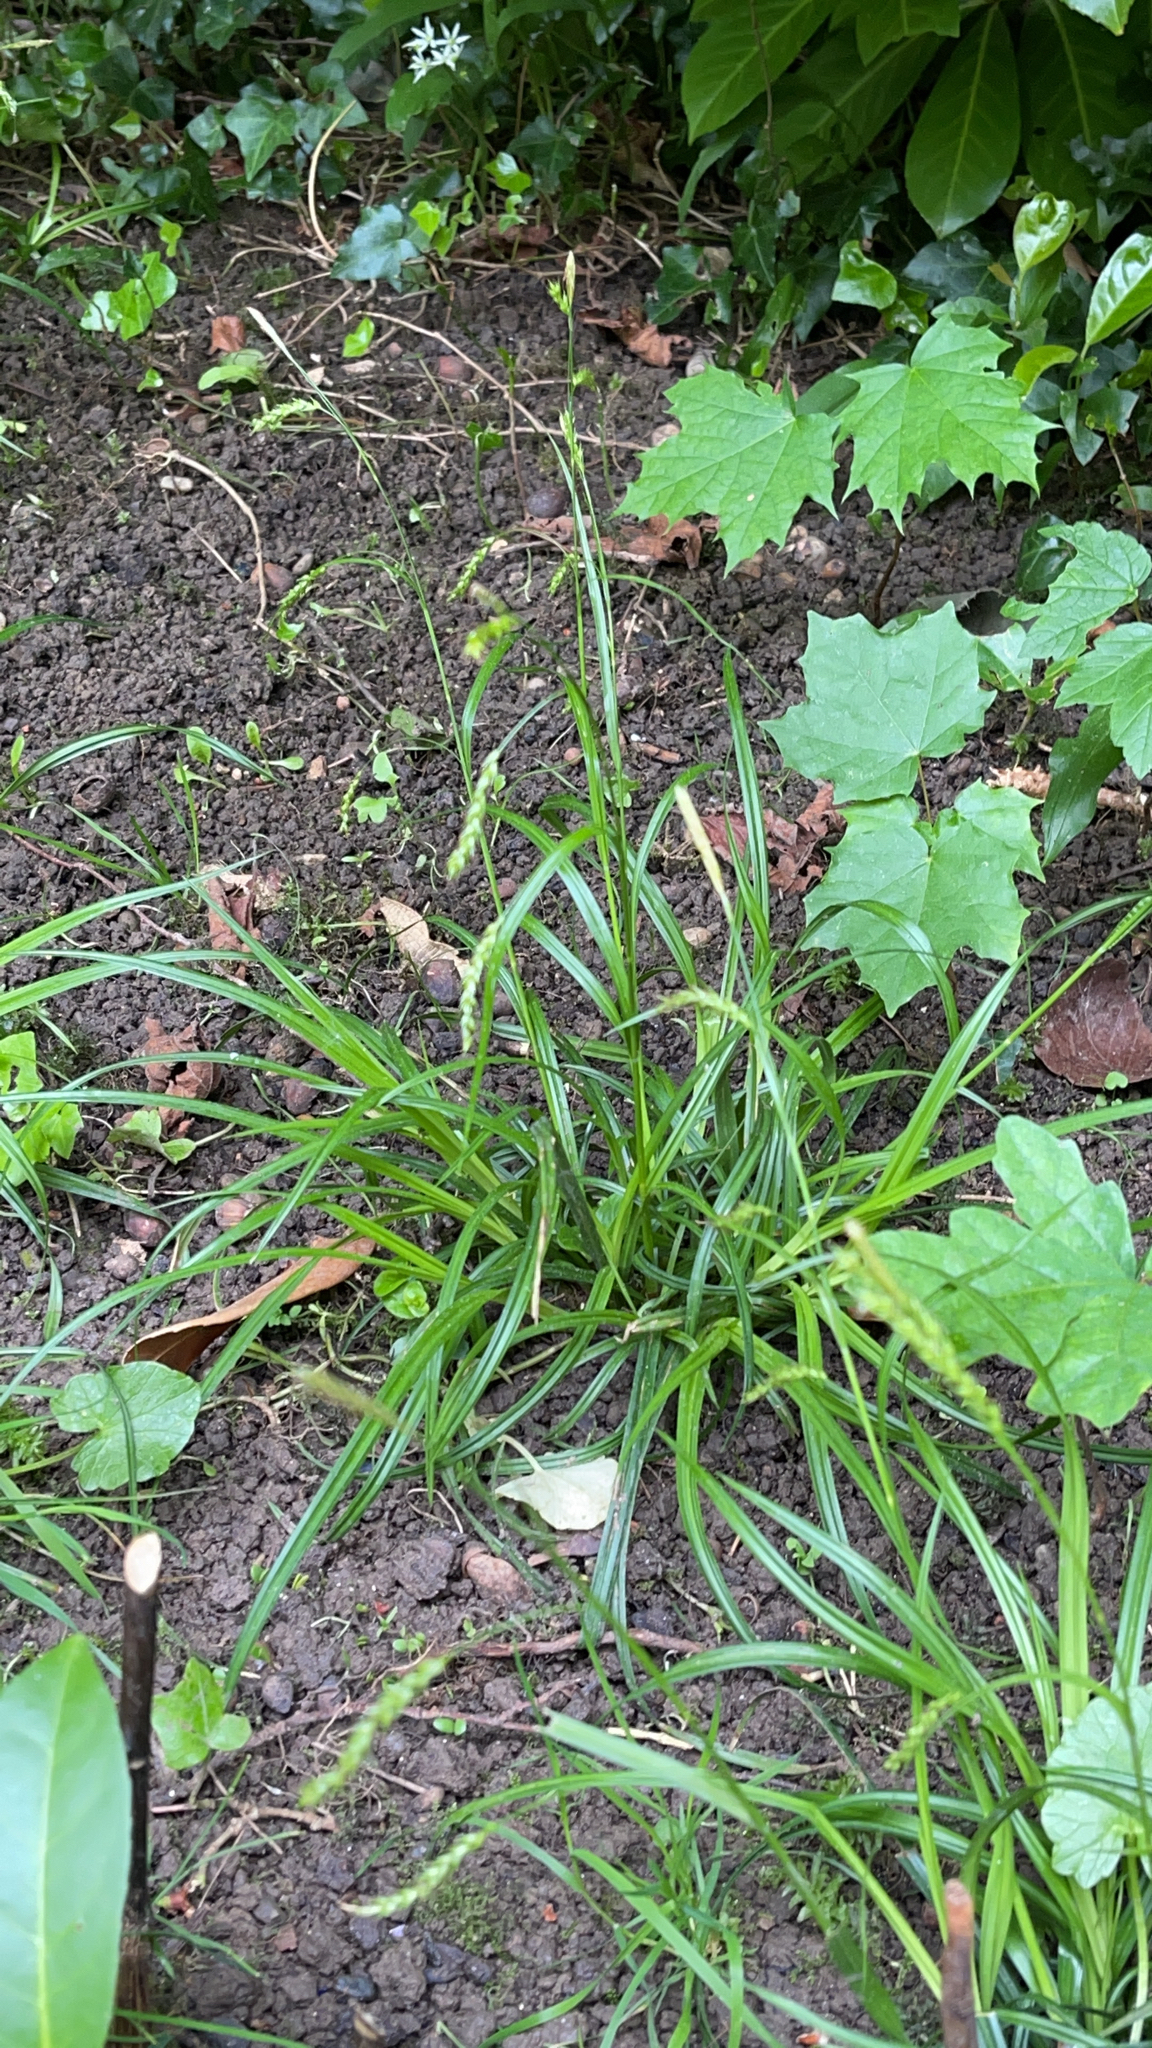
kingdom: Plantae
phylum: Tracheophyta
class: Liliopsida
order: Poales
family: Cyperaceae
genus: Carex
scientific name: Carex sylvatica
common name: Wood-sedge
